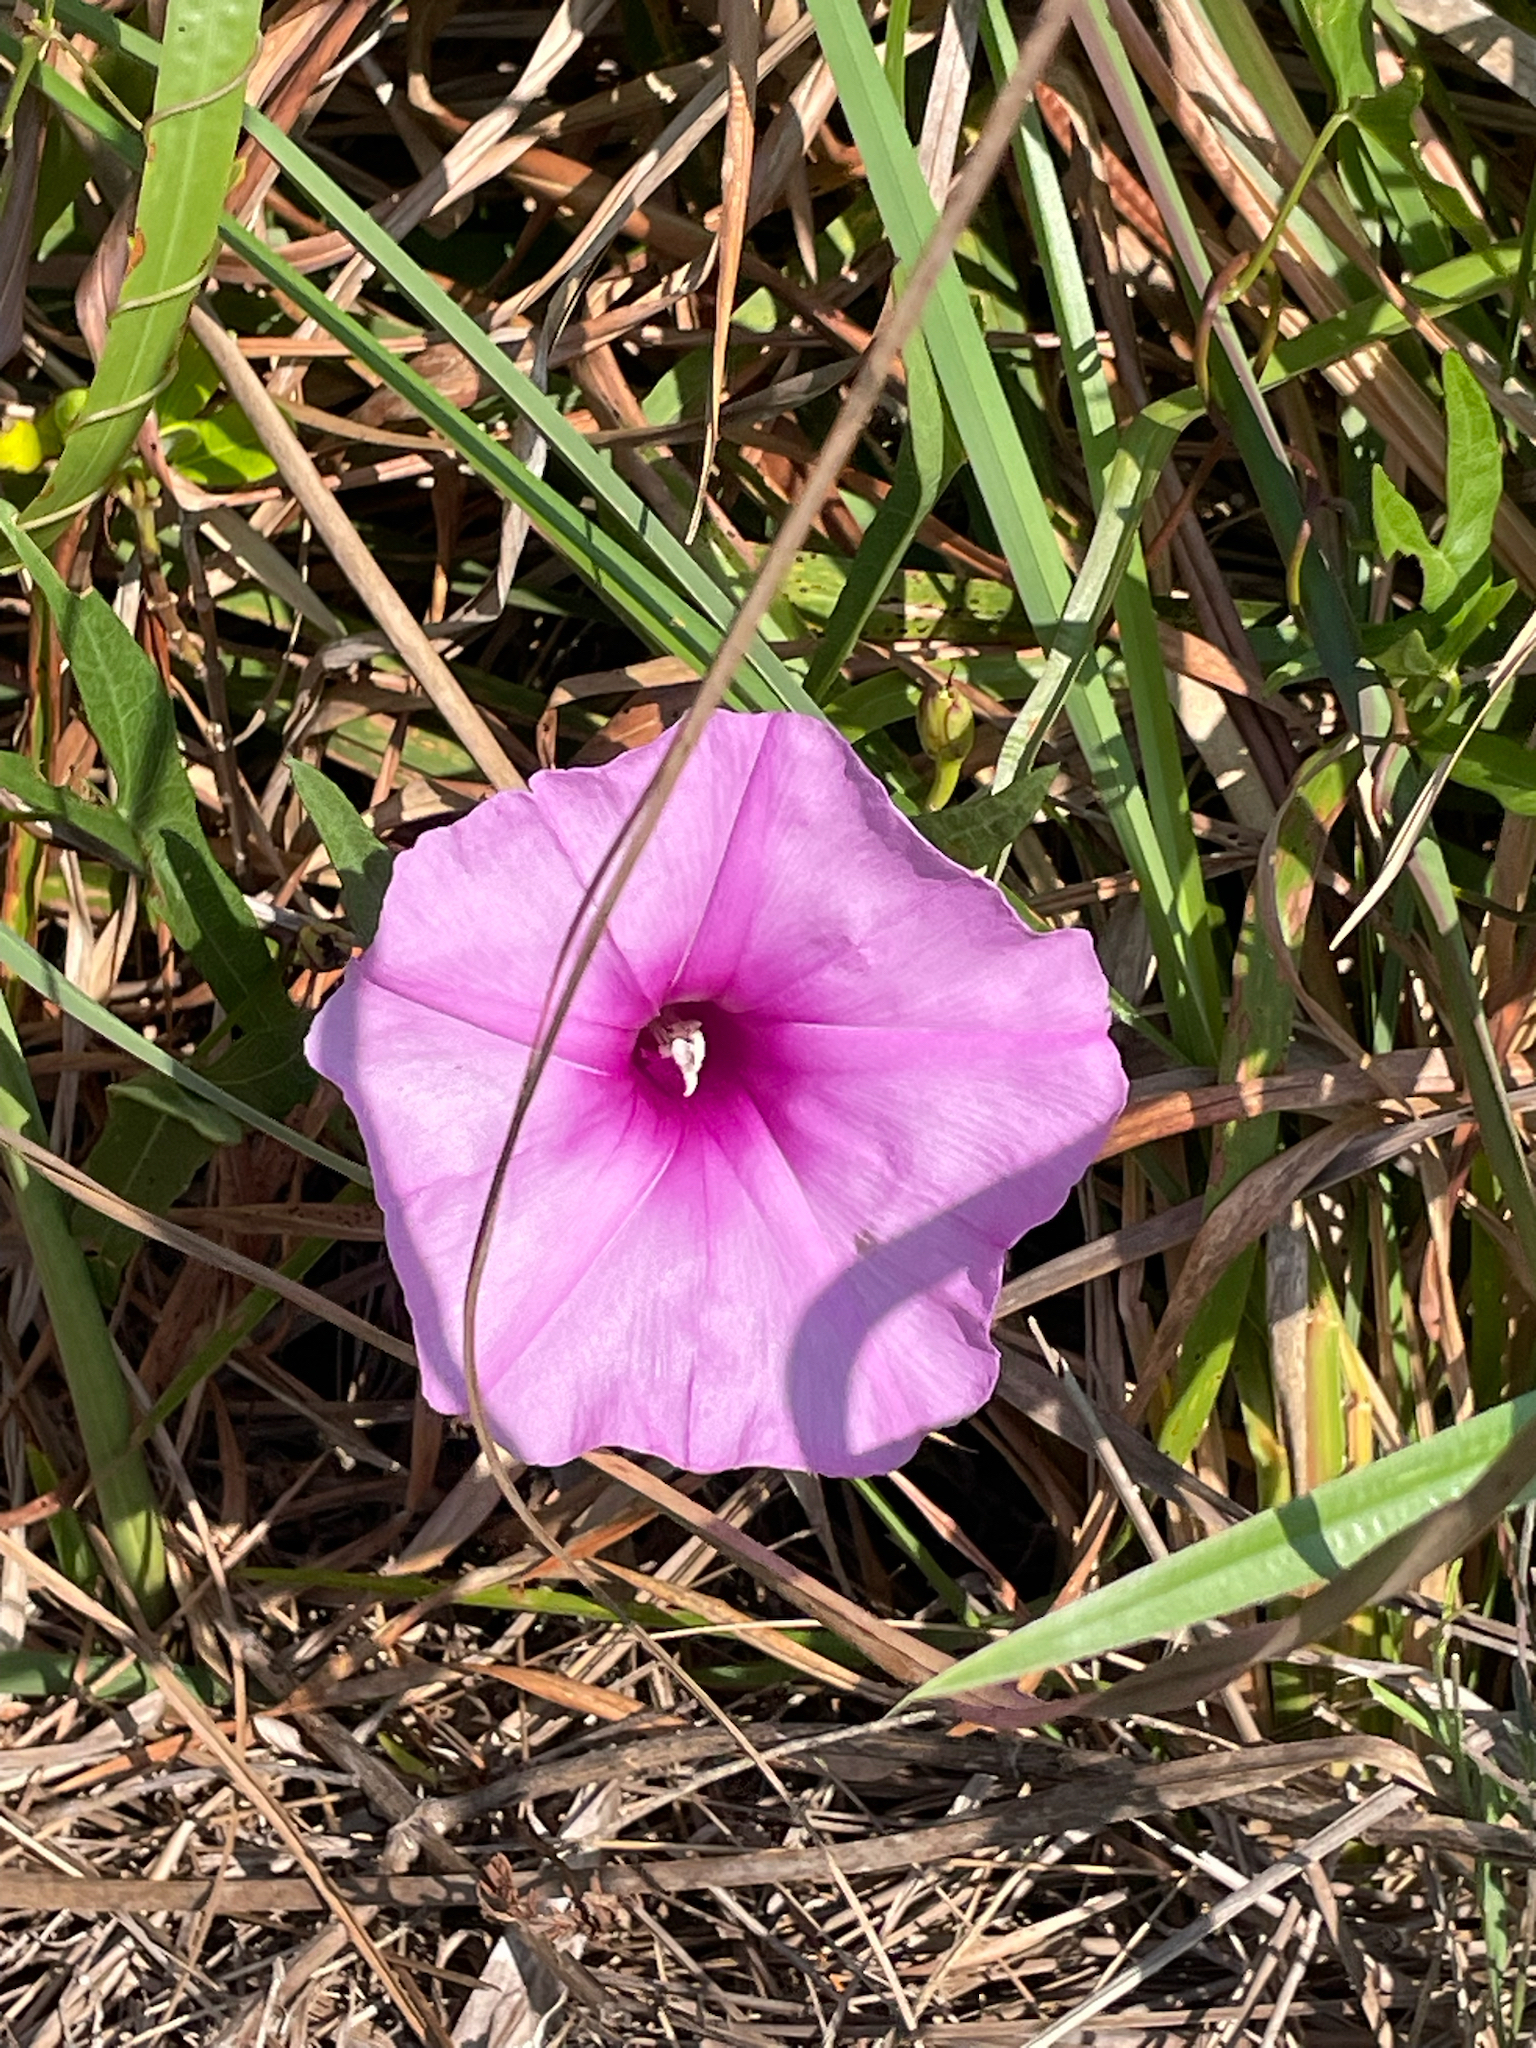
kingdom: Plantae
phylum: Tracheophyta
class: Magnoliopsida
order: Solanales
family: Convolvulaceae
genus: Ipomoea
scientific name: Ipomoea sagittata
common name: Saltmarsh morning glory
